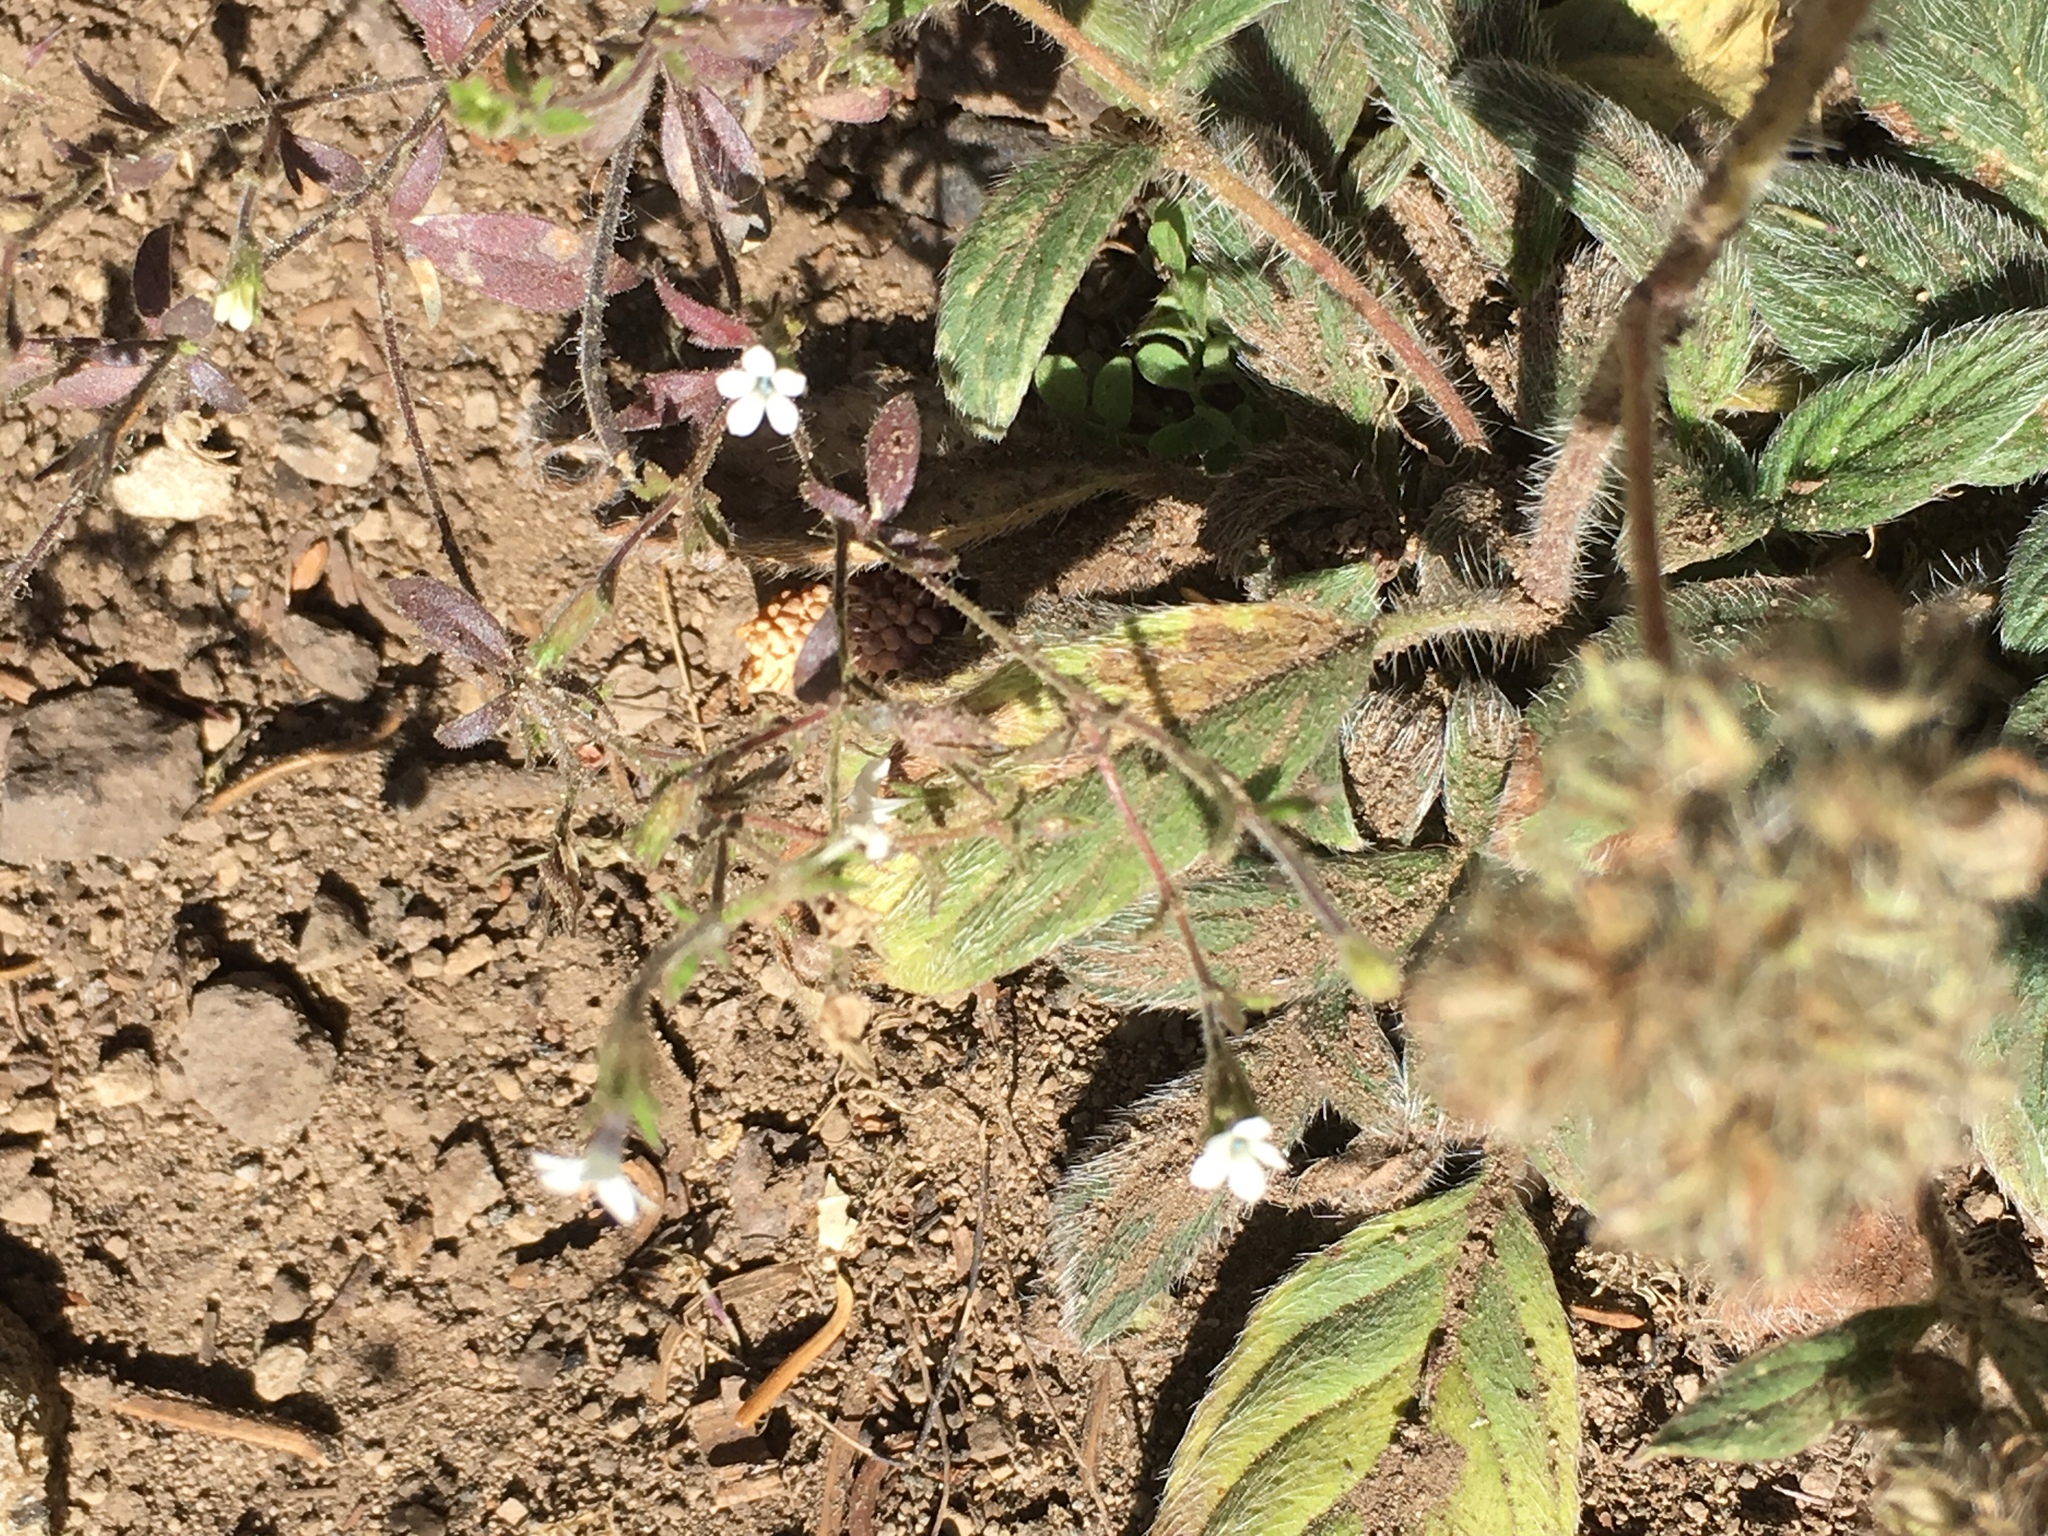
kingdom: Plantae
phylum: Tracheophyta
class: Magnoliopsida
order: Ericales
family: Polemoniaceae
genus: Allophyllum
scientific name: Allophyllum integrifolium
